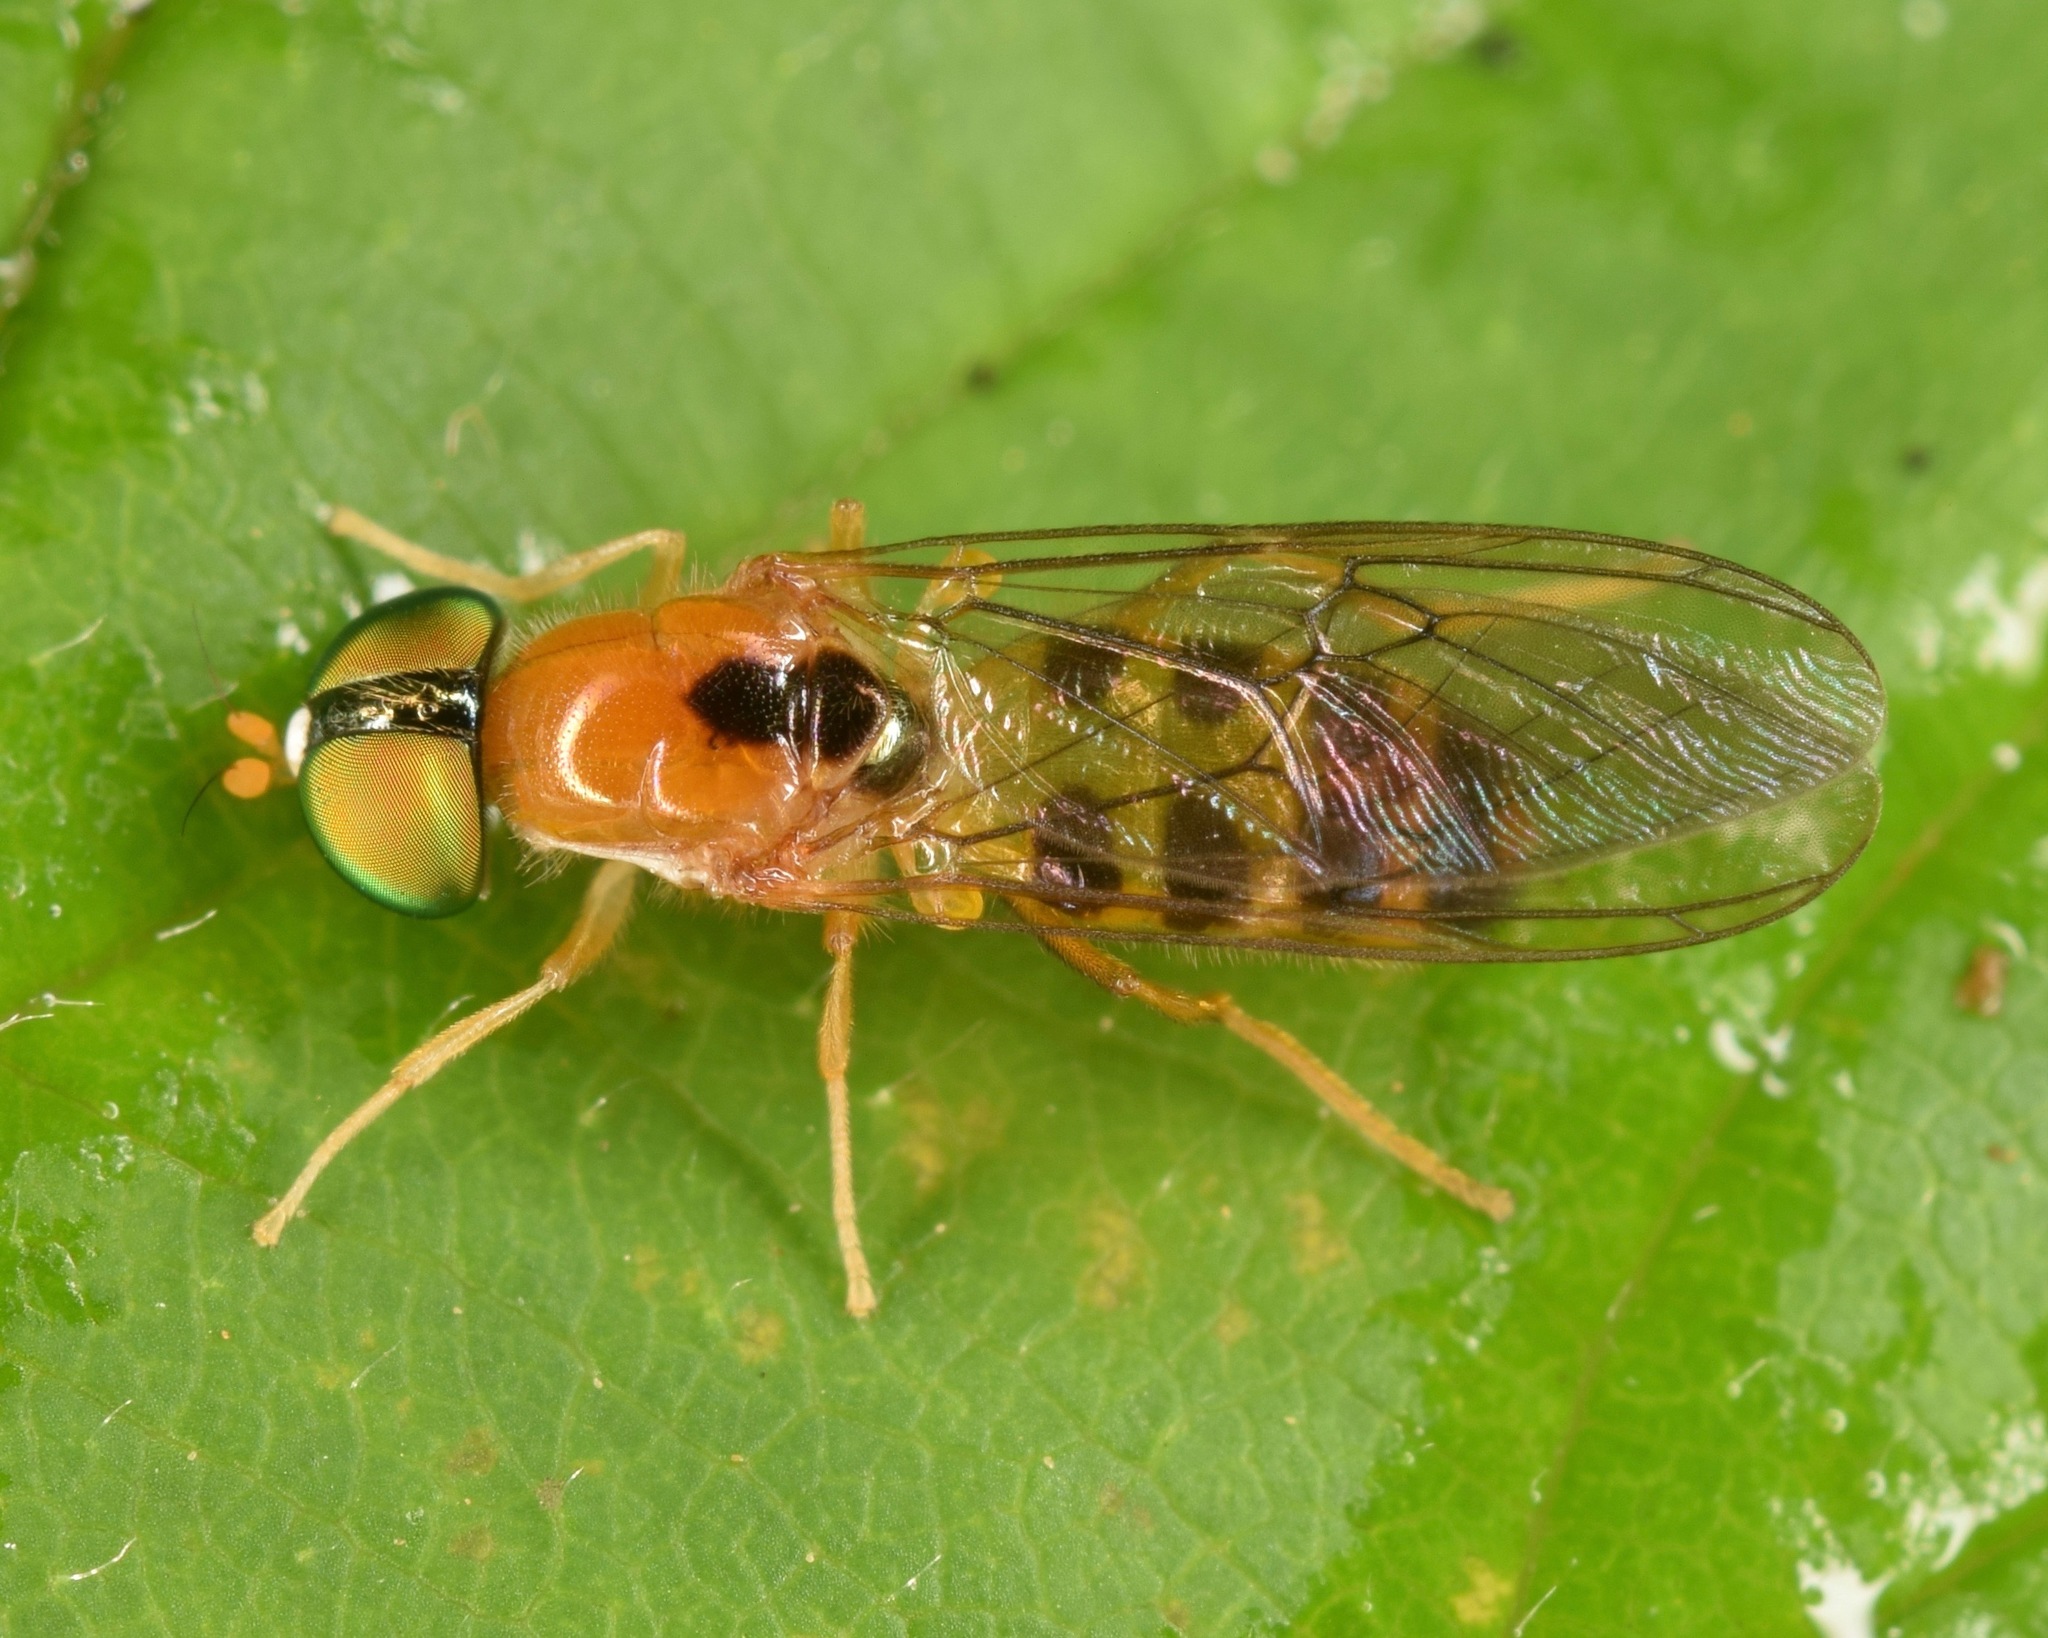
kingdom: Animalia
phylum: Arthropoda
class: Insecta
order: Diptera
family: Stratiomyidae
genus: Sargus
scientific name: Sargus elegans
